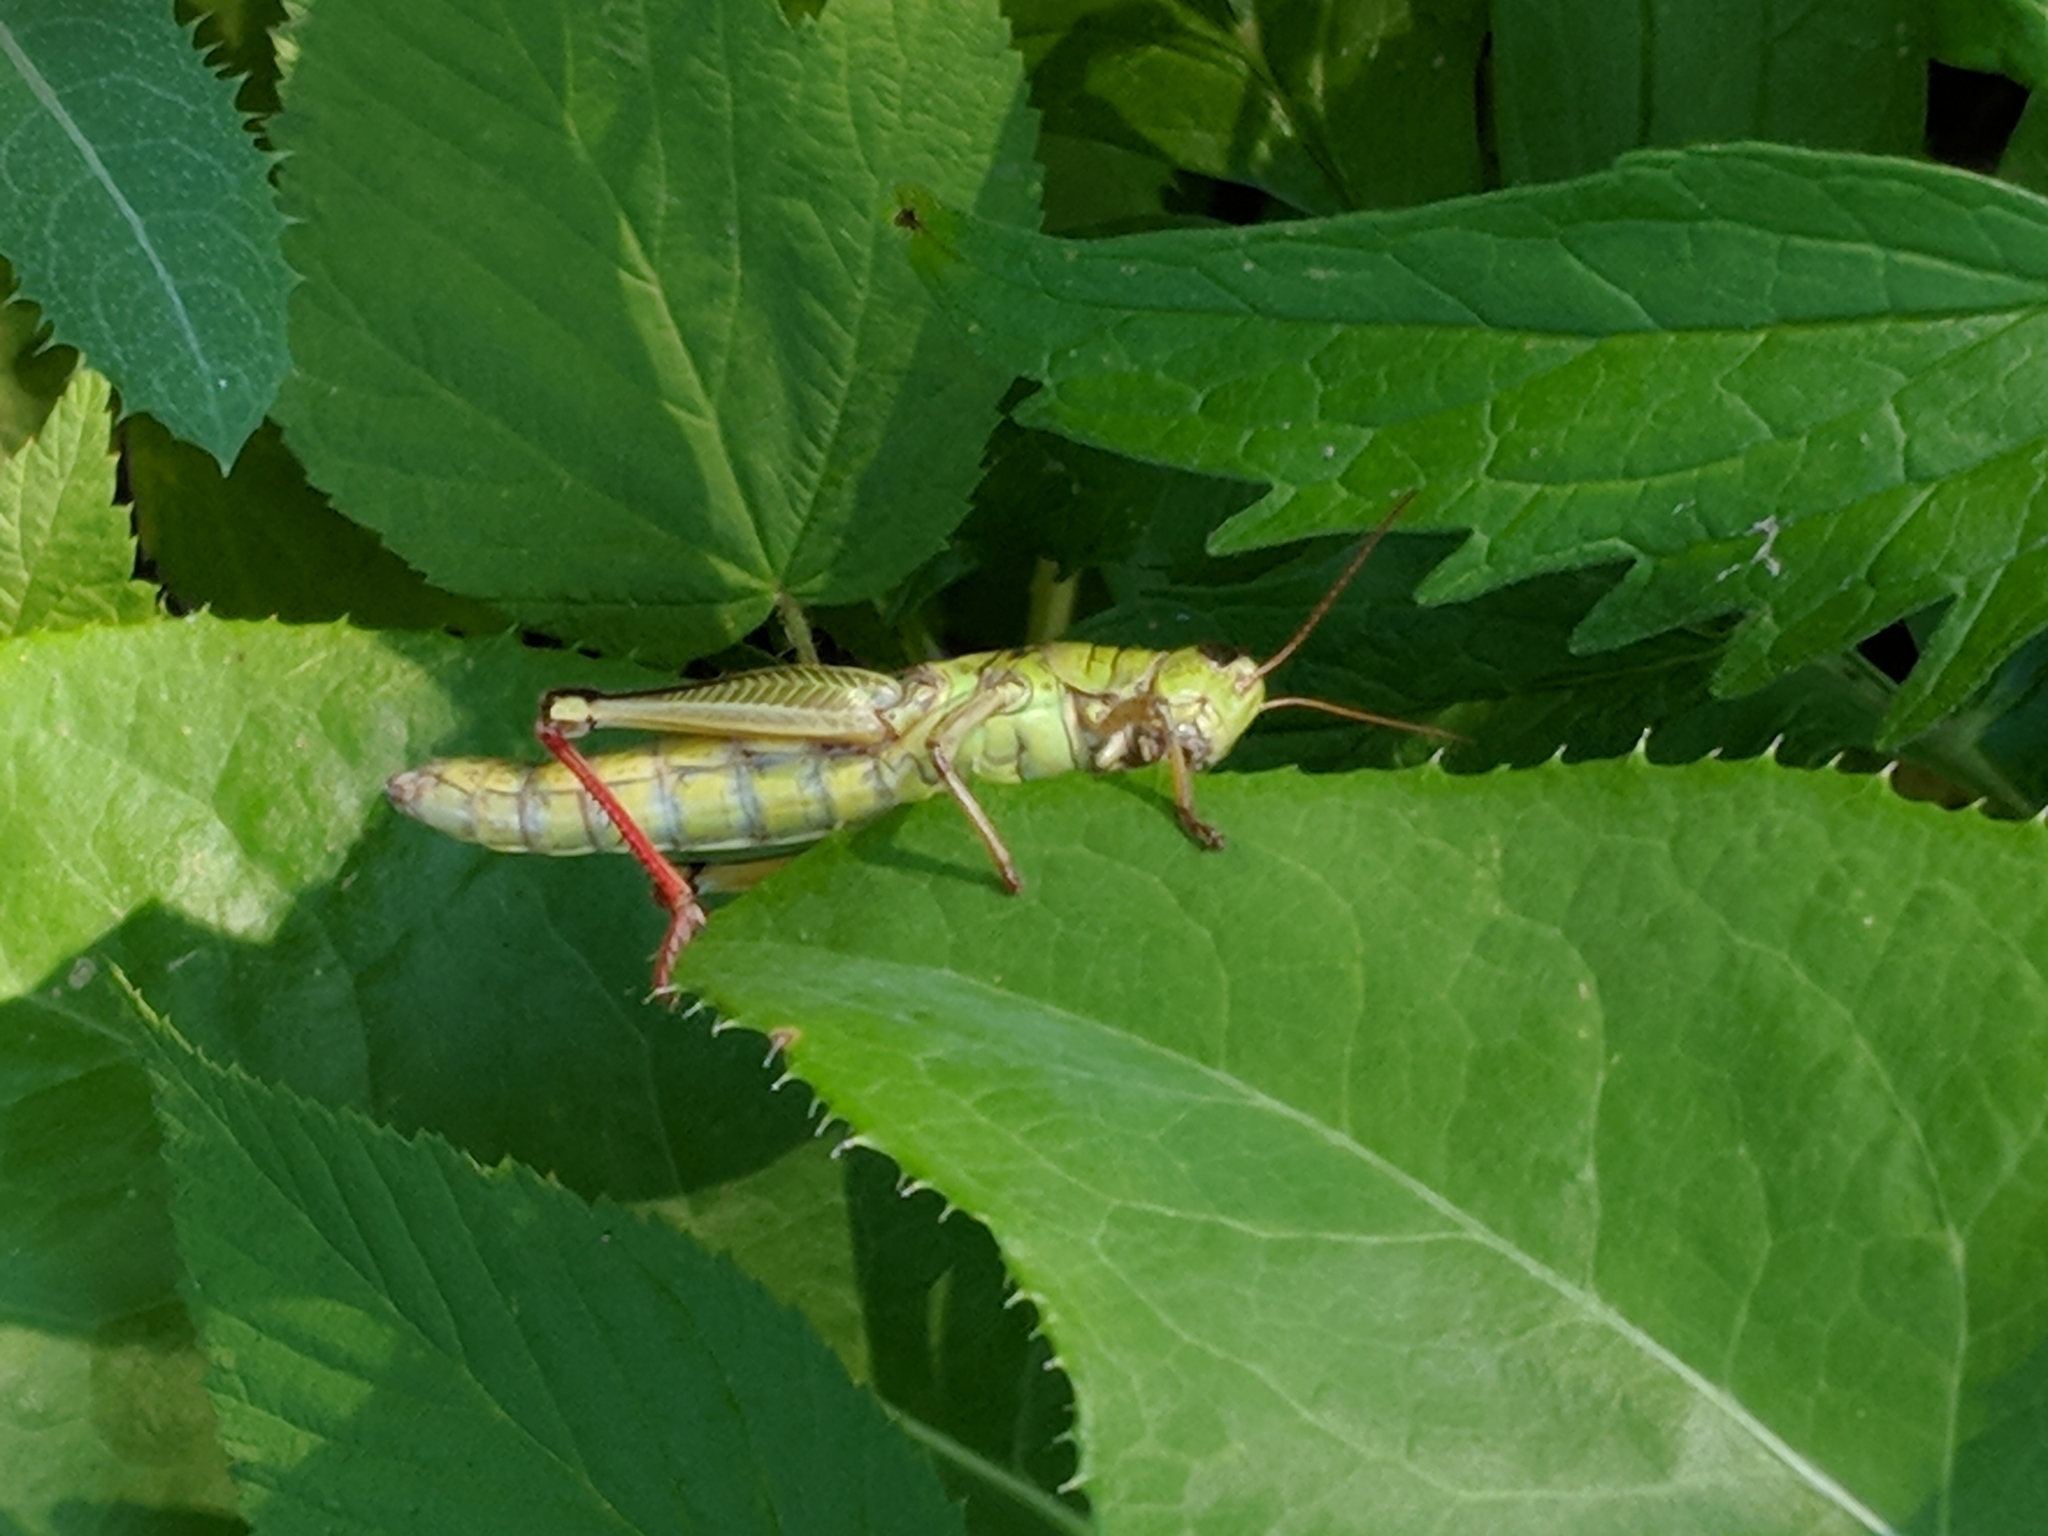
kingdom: Animalia
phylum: Arthropoda
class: Insecta
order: Orthoptera
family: Acrididae
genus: Melanoplus
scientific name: Melanoplus bivittatus
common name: Two-striped grasshopper
